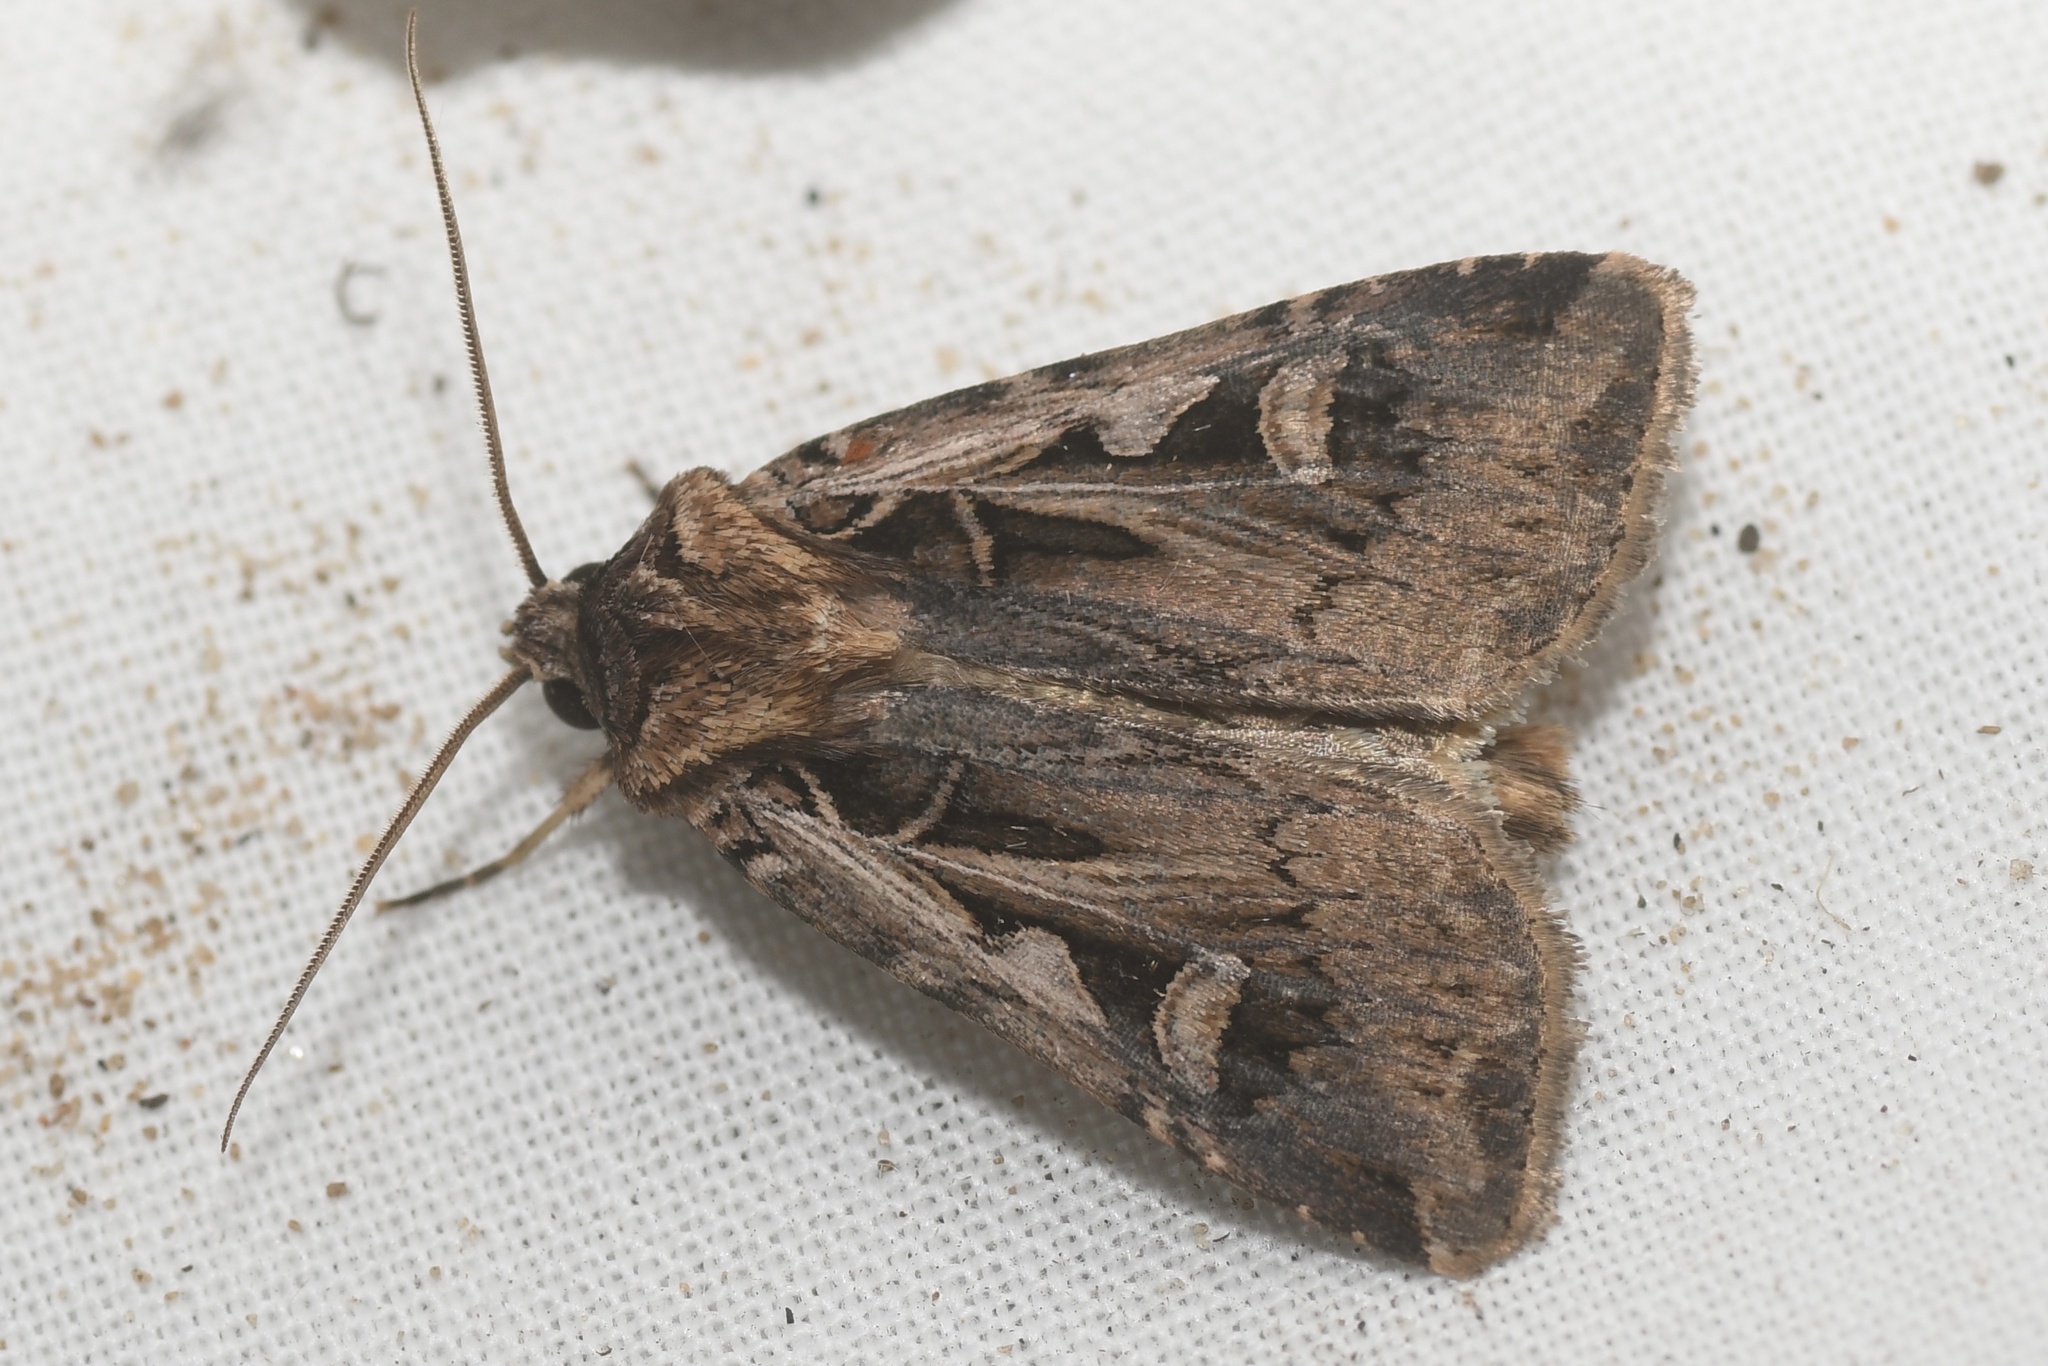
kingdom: Animalia
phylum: Arthropoda
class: Insecta
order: Lepidoptera
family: Noctuidae
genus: Feltia
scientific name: Feltia subgothica
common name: Gothic dart
